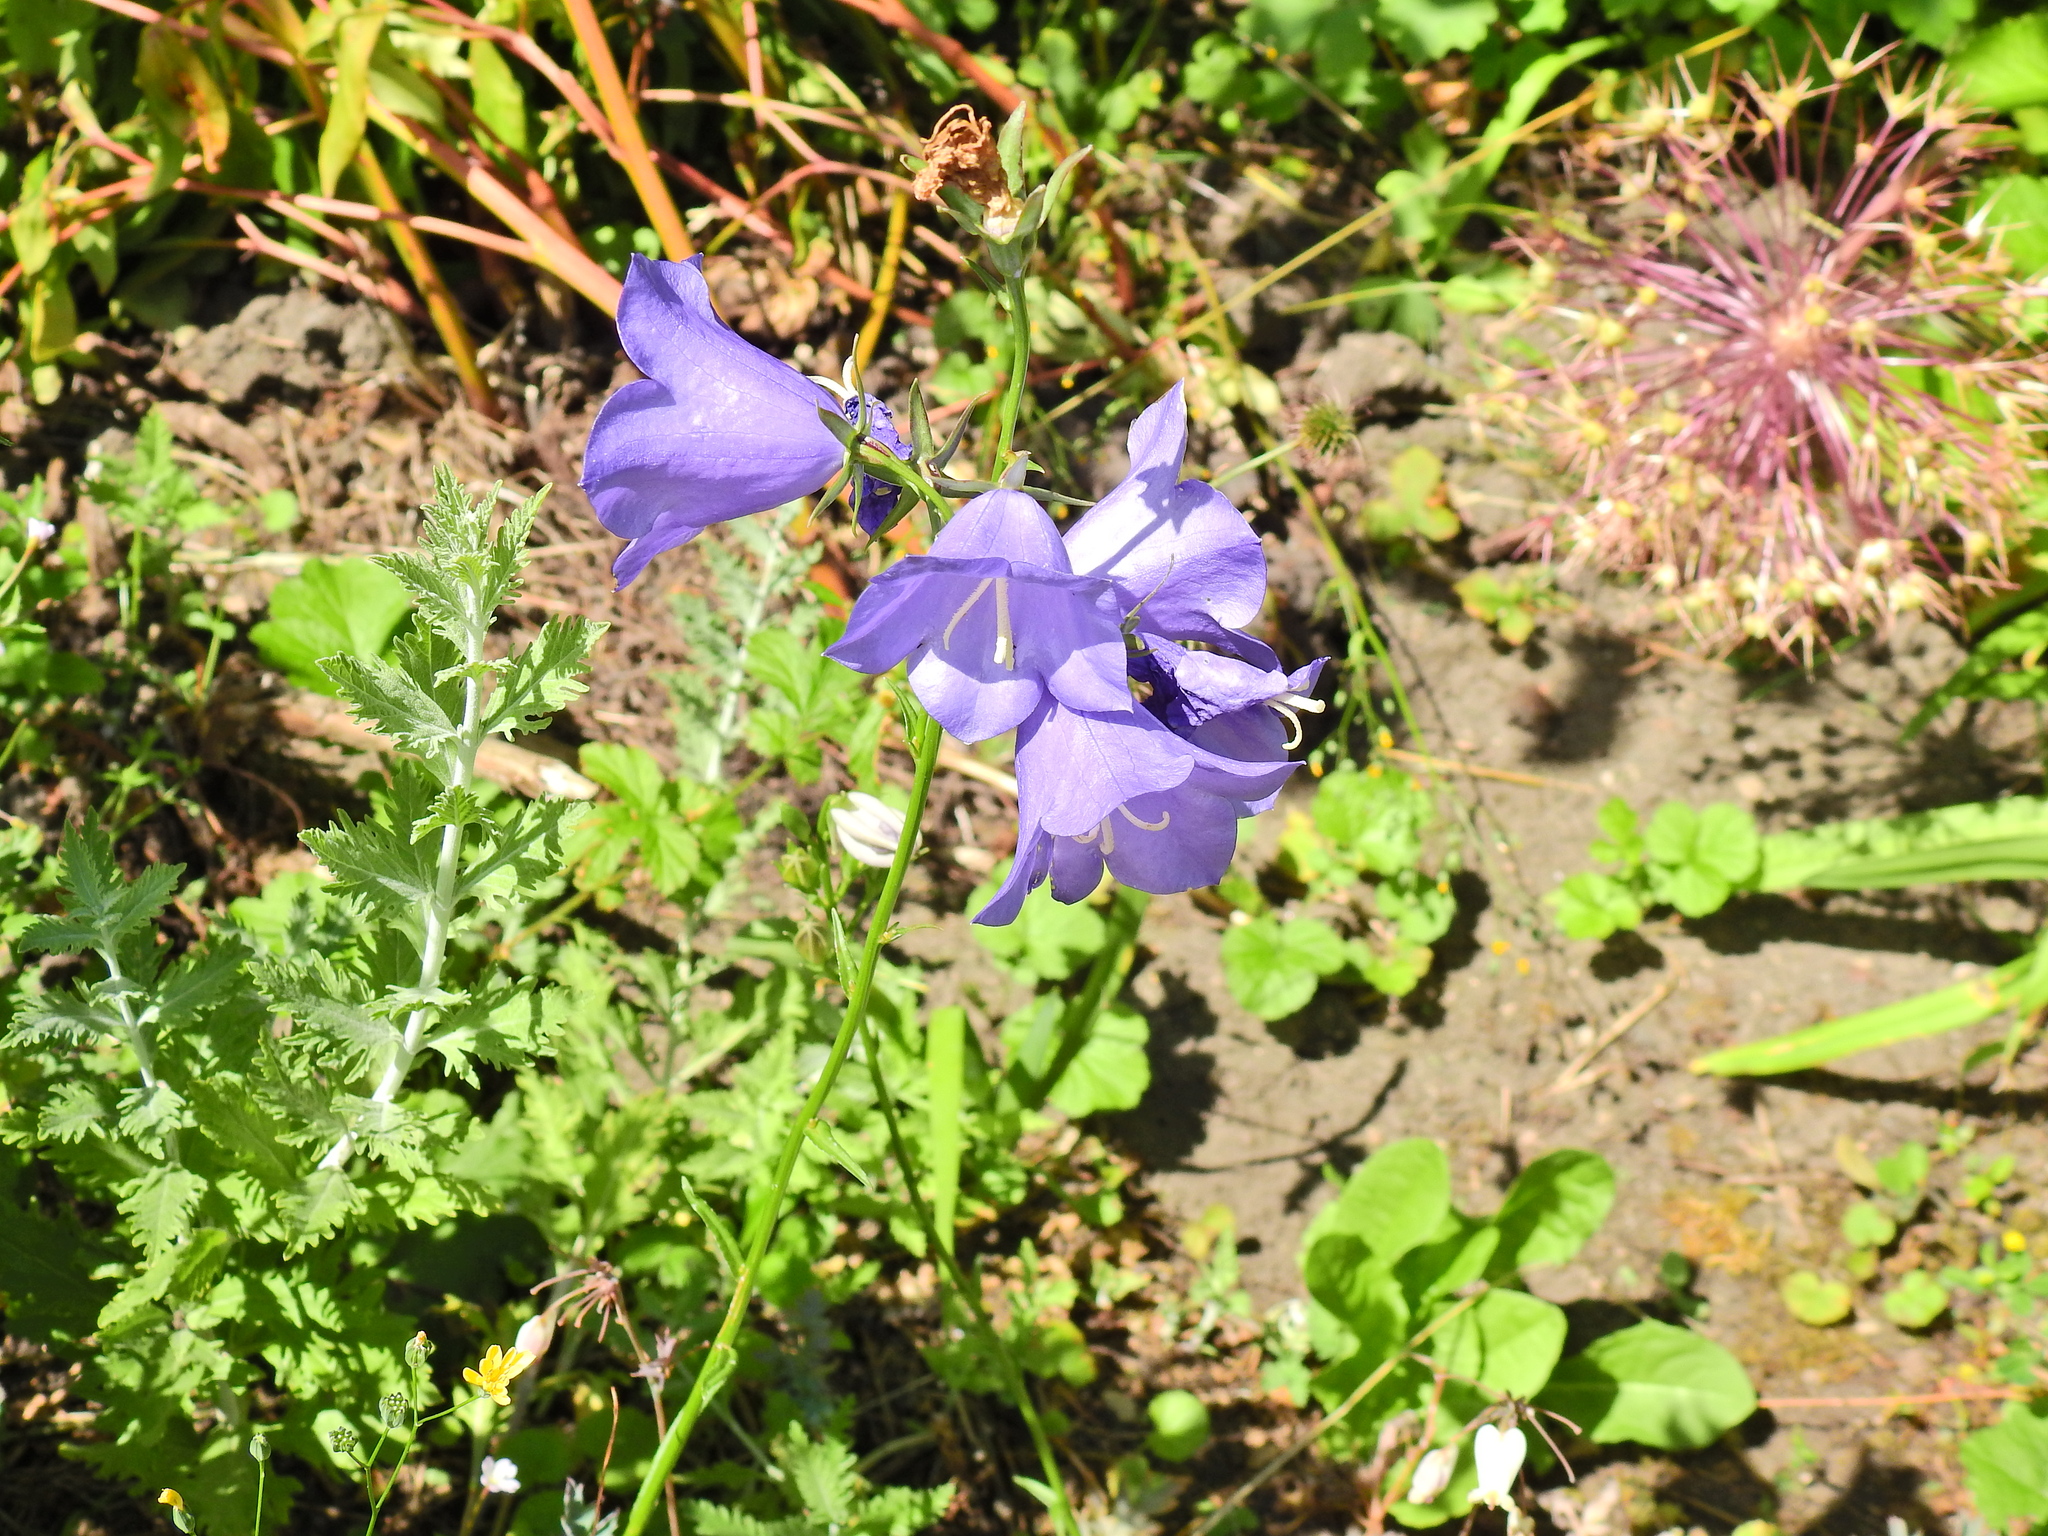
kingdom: Plantae
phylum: Tracheophyta
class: Magnoliopsida
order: Asterales
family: Campanulaceae
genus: Campanula
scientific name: Campanula rotundifolia
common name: Harebell
